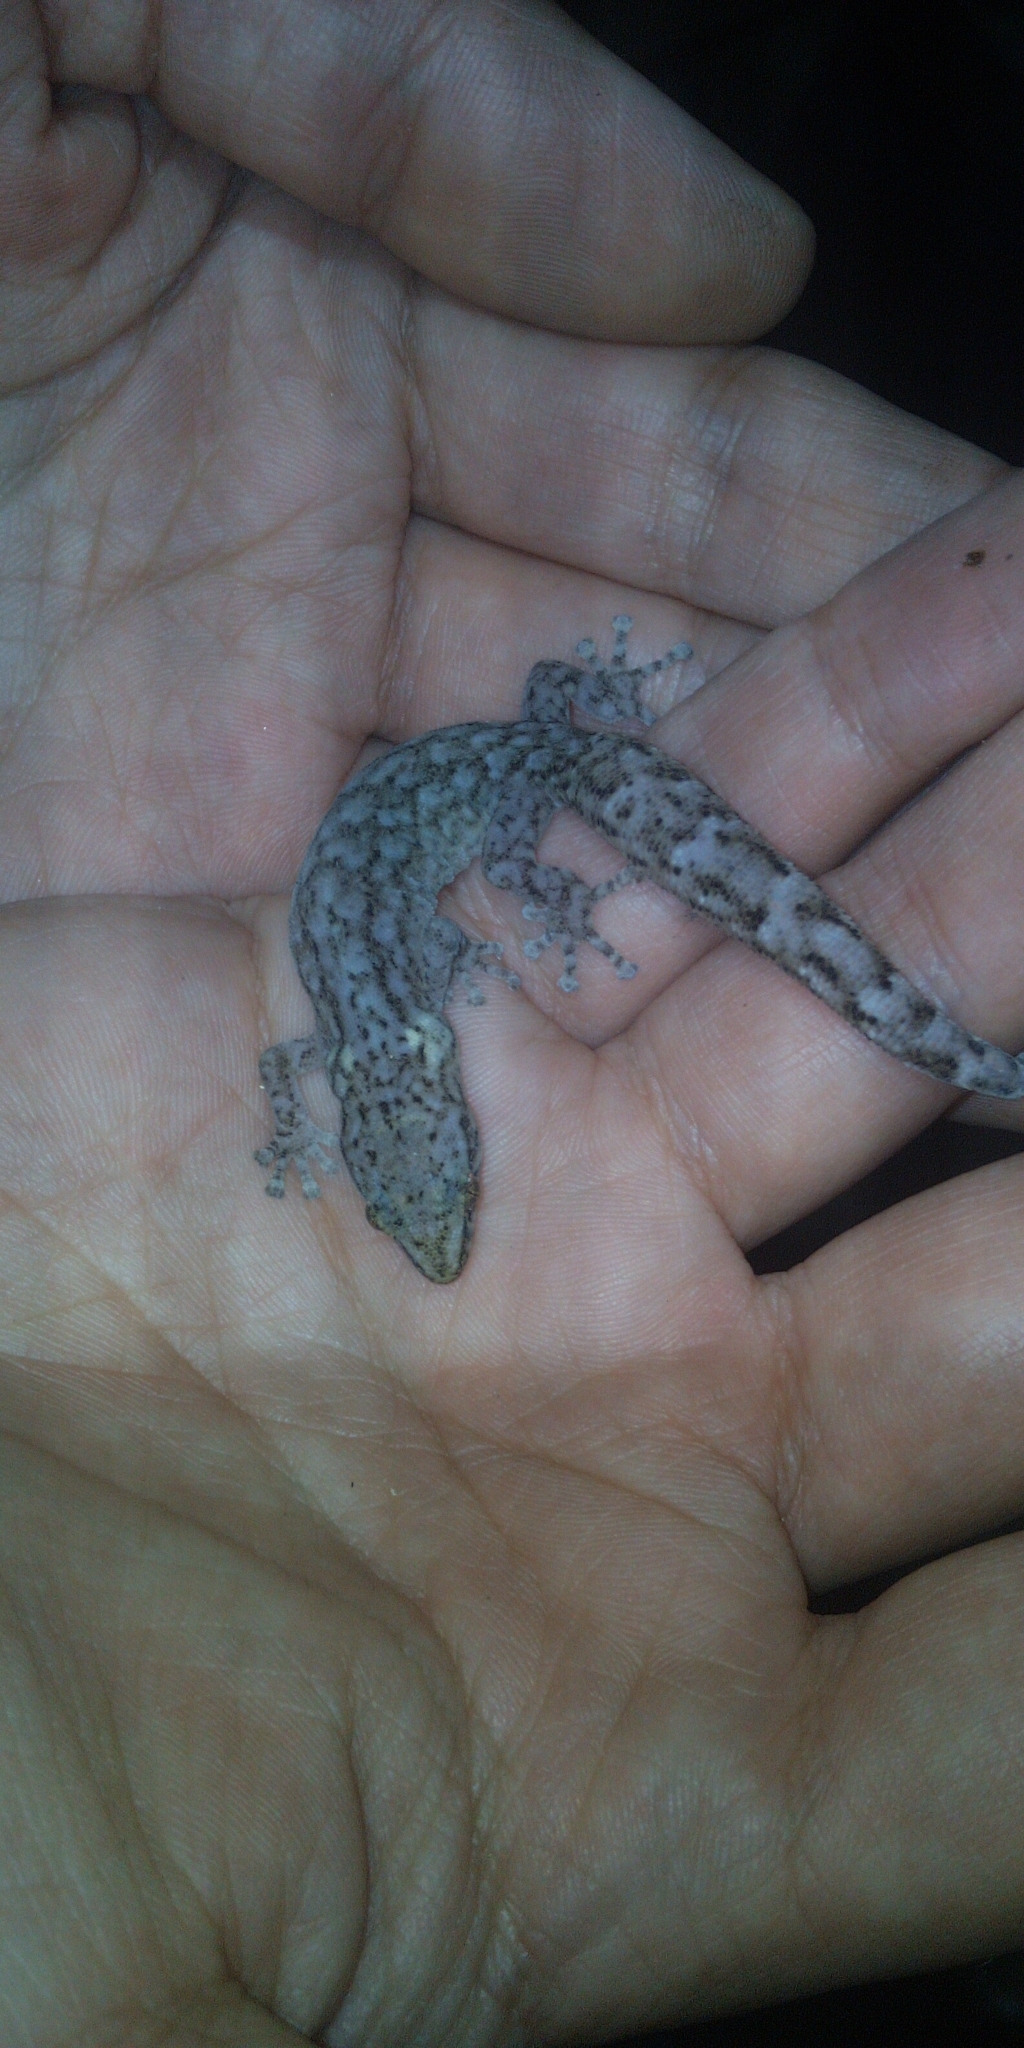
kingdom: Animalia
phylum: Chordata
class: Squamata
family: Gekkonidae
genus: Afrogecko
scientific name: Afrogecko porphyreus
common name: Marbled leaf-toed gecko
